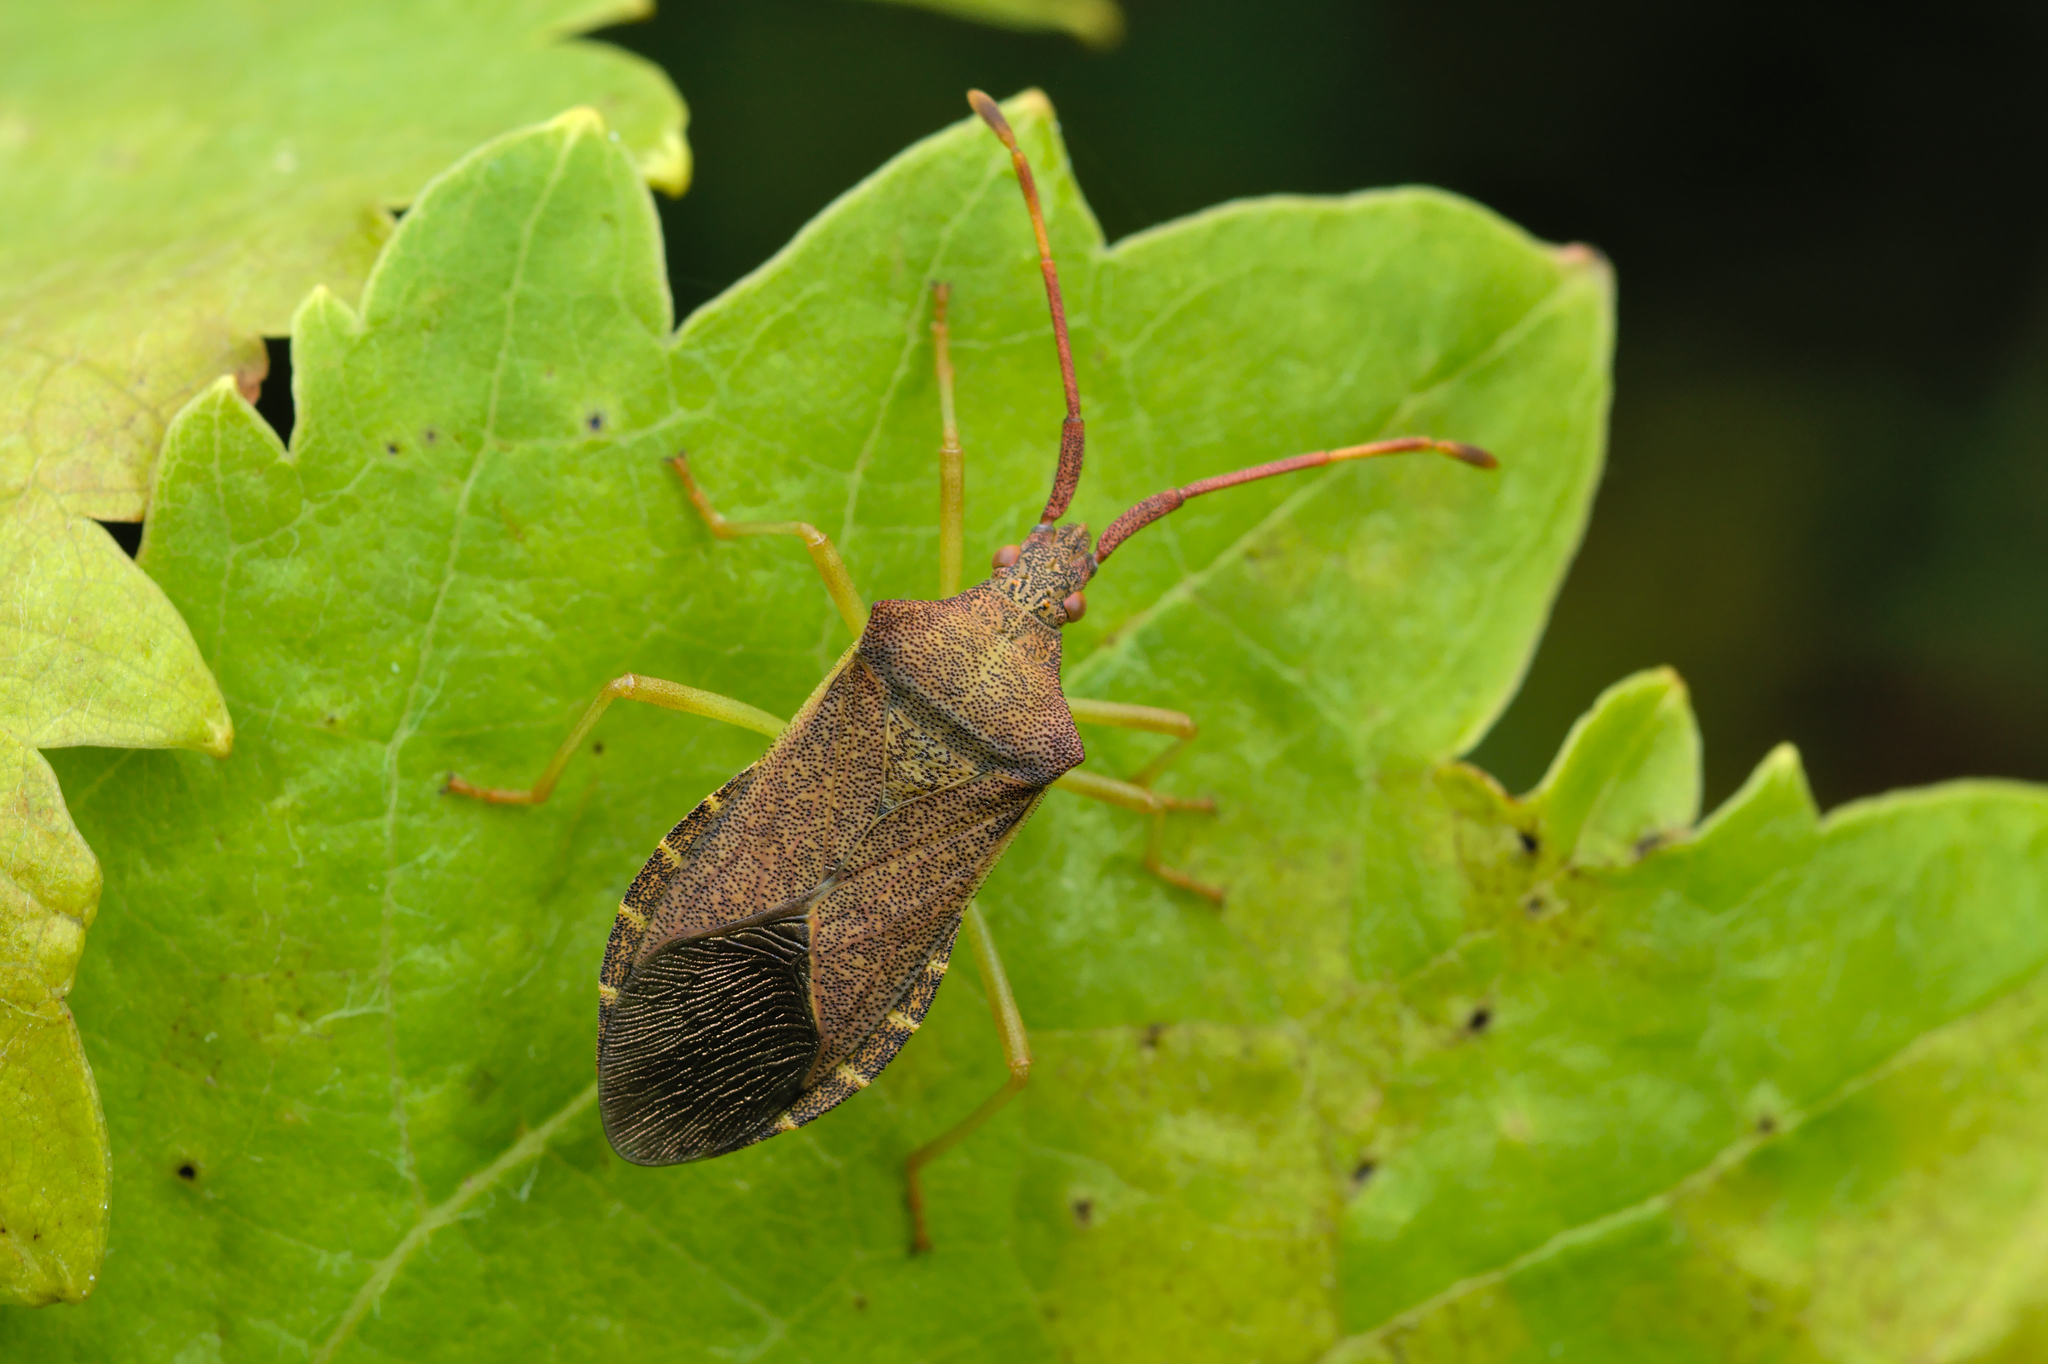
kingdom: Animalia
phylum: Arthropoda
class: Insecta
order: Hemiptera
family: Coreidae
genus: Gonocerus
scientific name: Gonocerus acuteangulatus
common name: Box bug
